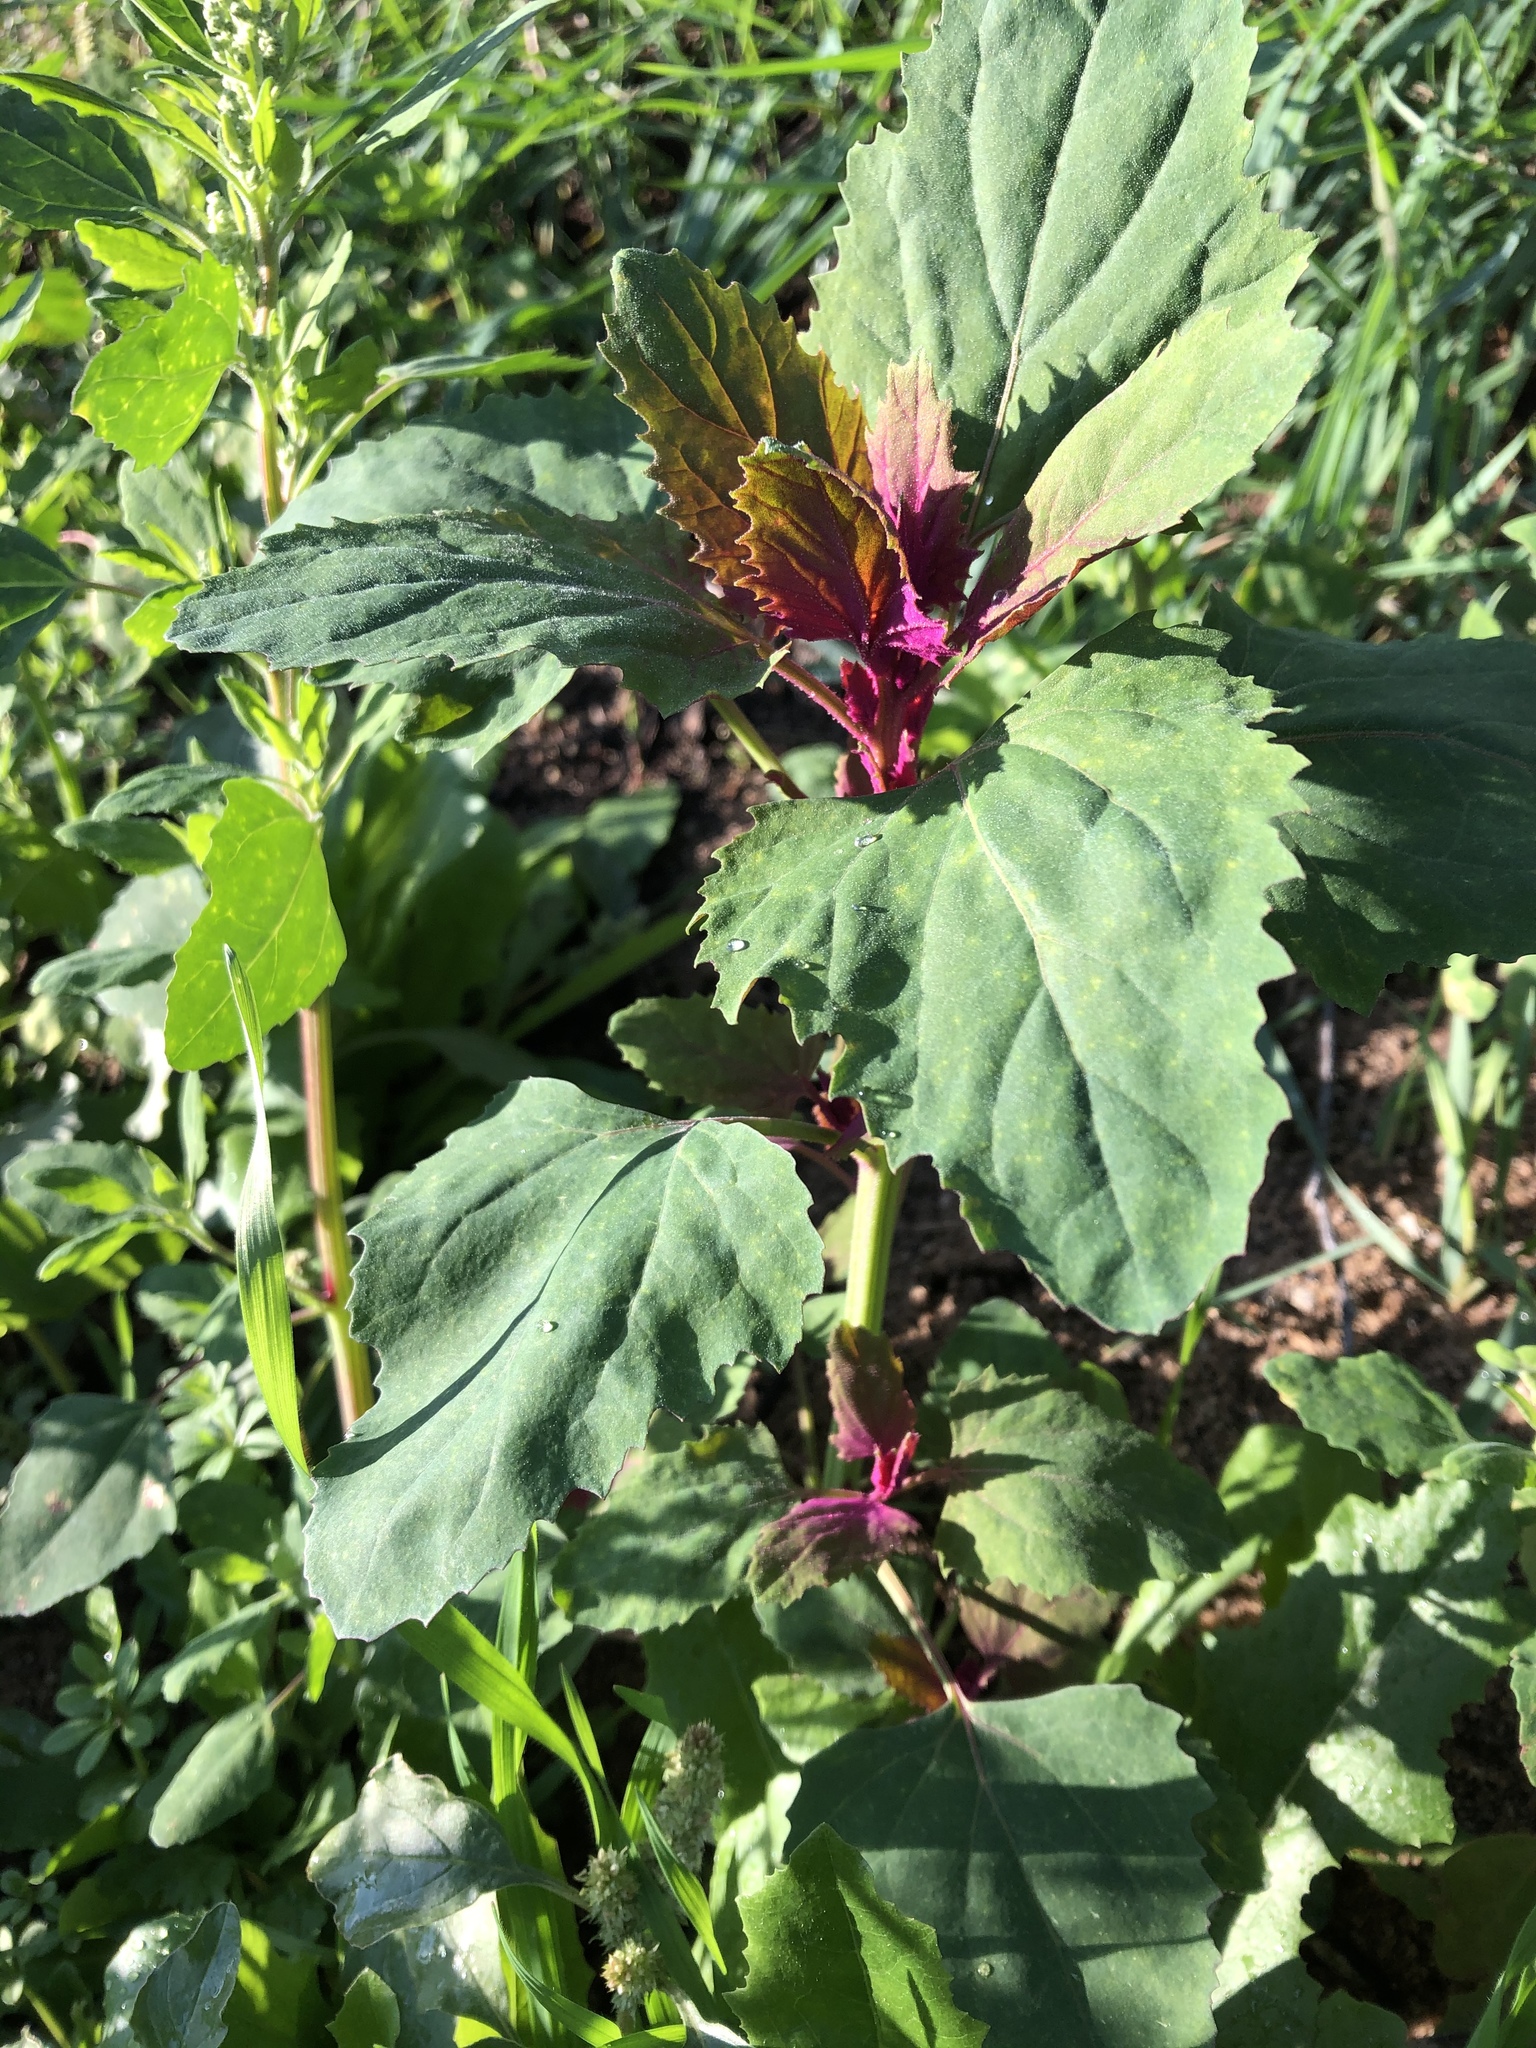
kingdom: Plantae
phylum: Tracheophyta
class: Magnoliopsida
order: Caryophyllales
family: Amaranthaceae
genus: Chenopodium
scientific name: Chenopodium giganteum
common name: Magentaspreen
